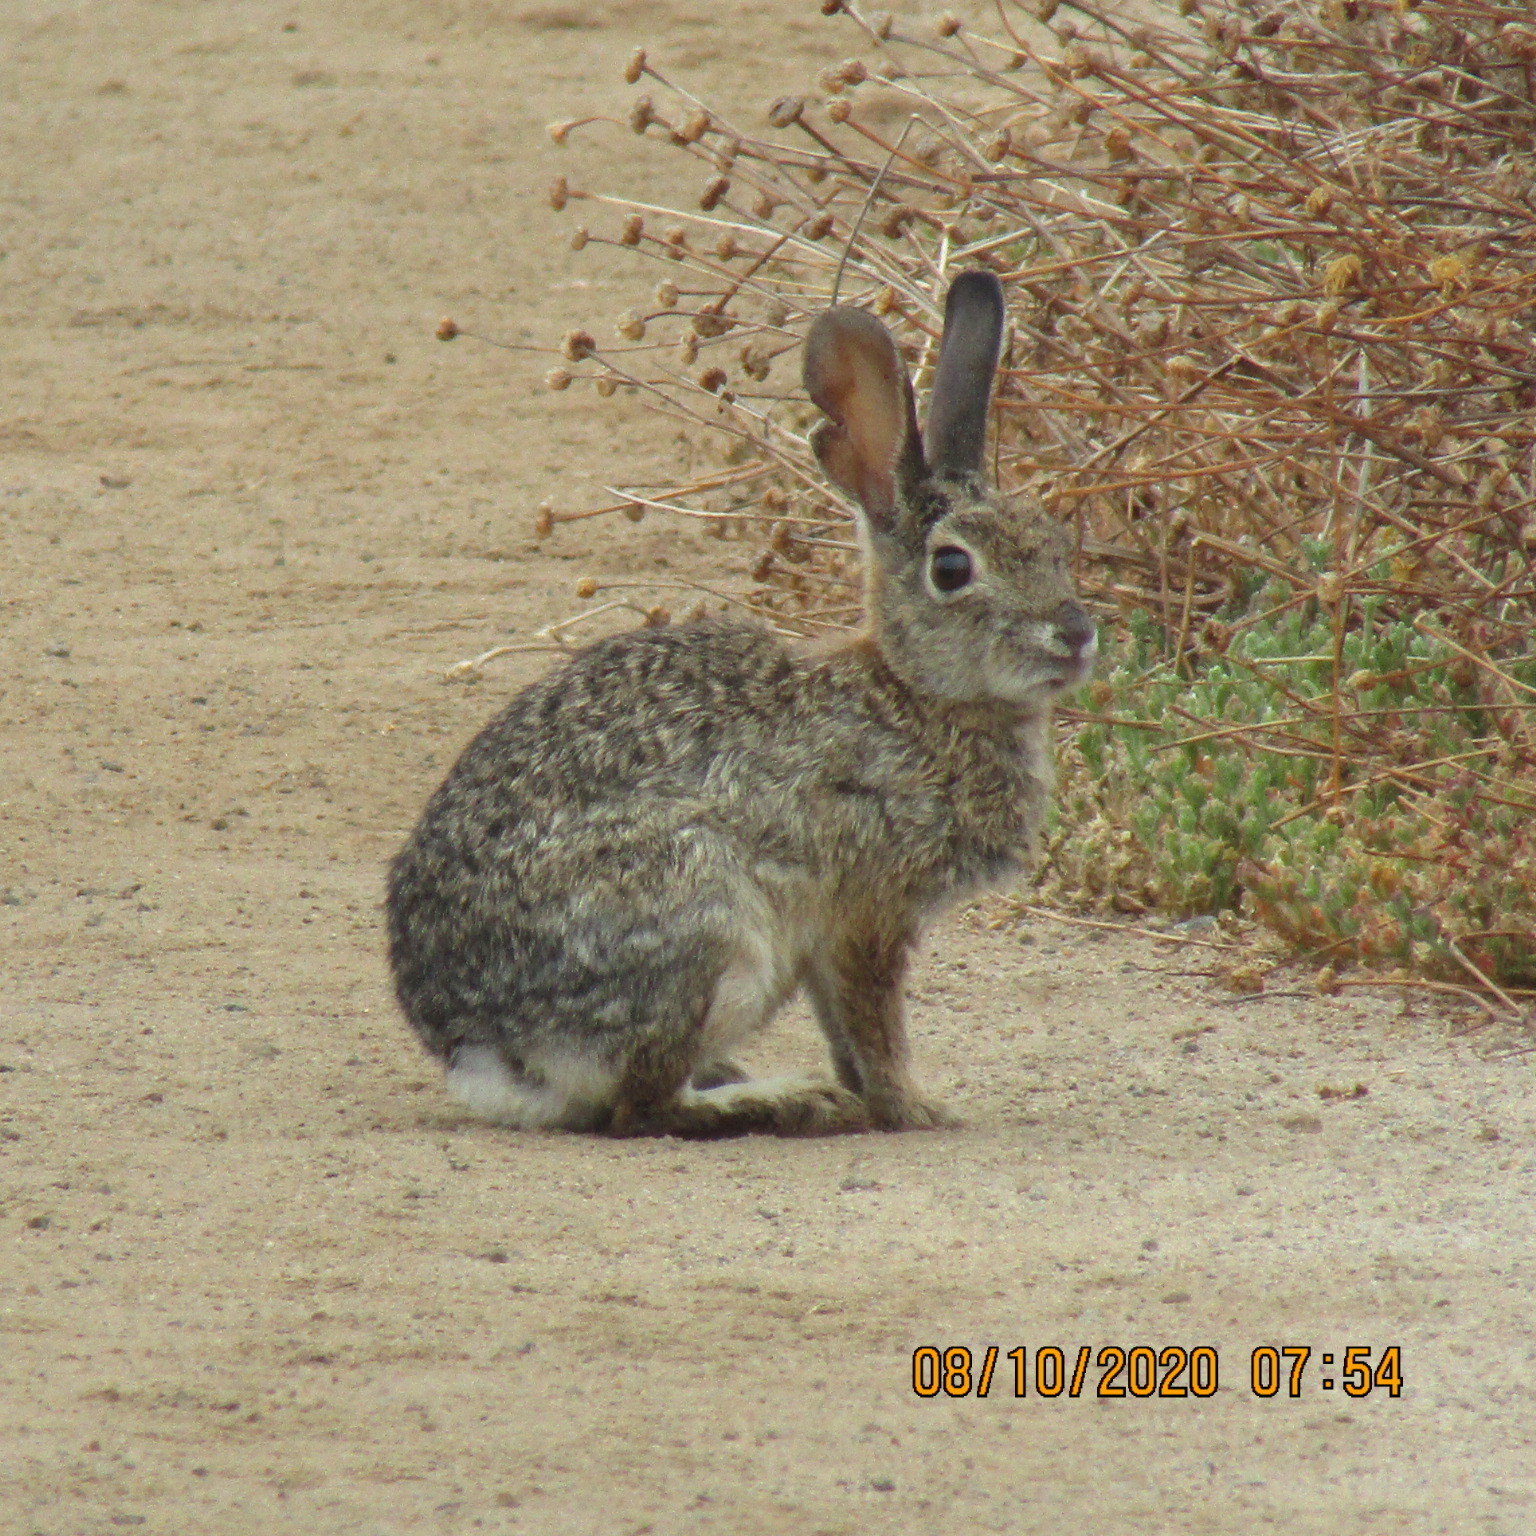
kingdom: Animalia
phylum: Chordata
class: Mammalia
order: Lagomorpha
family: Leporidae
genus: Sylvilagus
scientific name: Sylvilagus audubonii
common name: Desert cottontail
